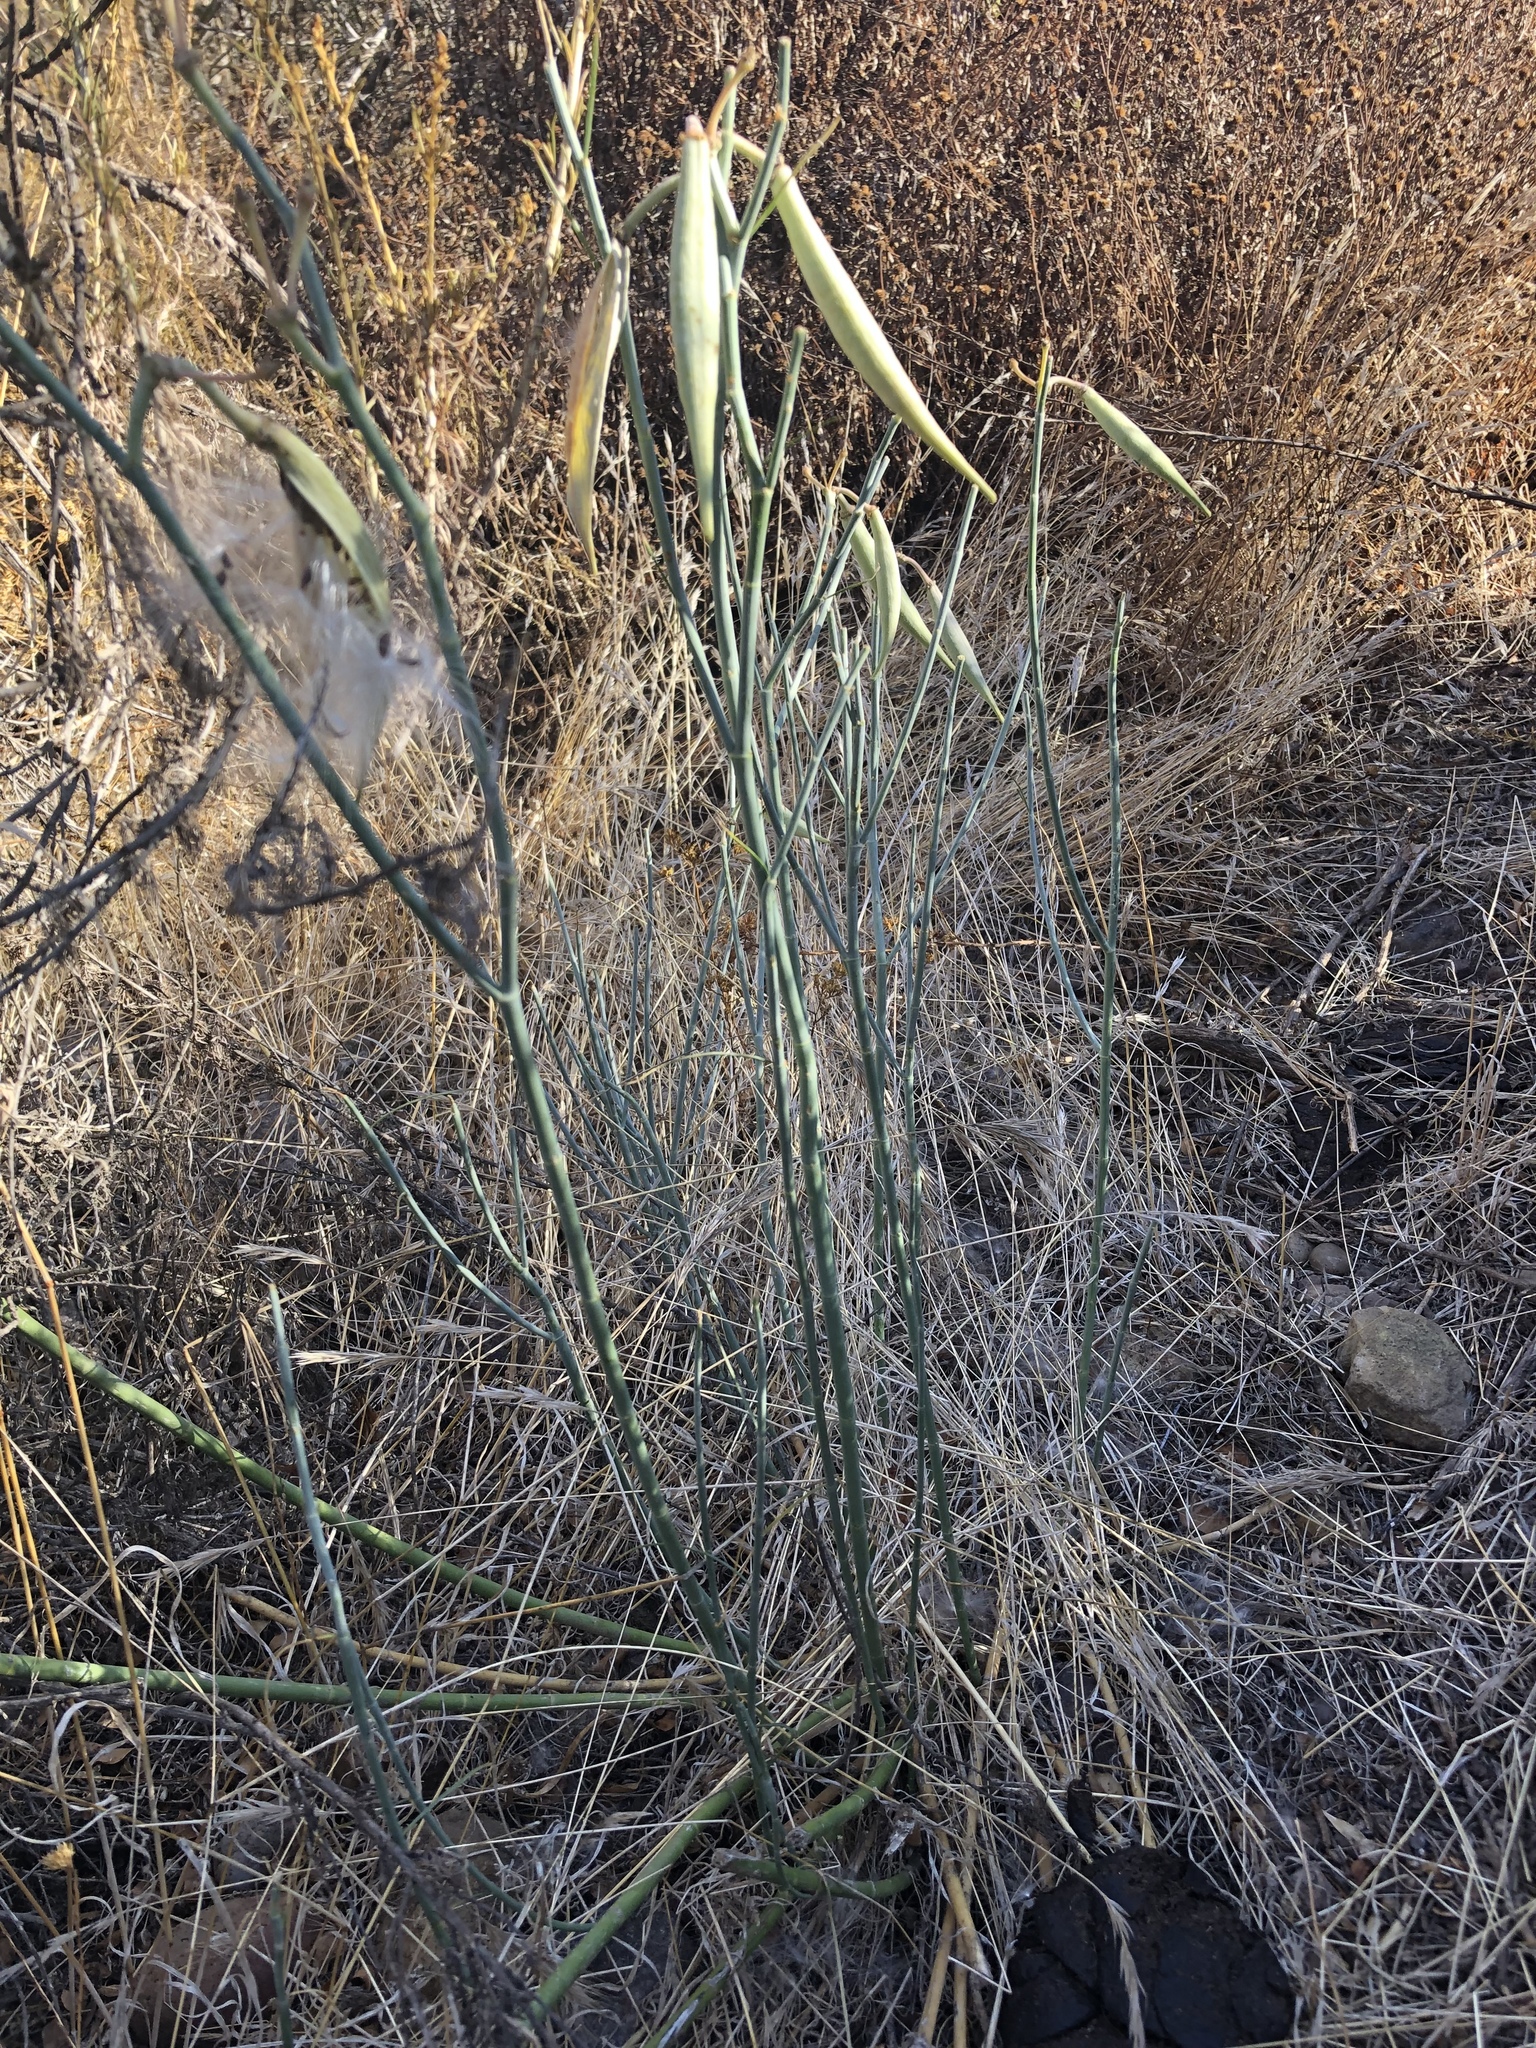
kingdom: Plantae
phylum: Tracheophyta
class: Magnoliopsida
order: Gentianales
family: Apocynaceae
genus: Asclepias
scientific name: Asclepias subulata
